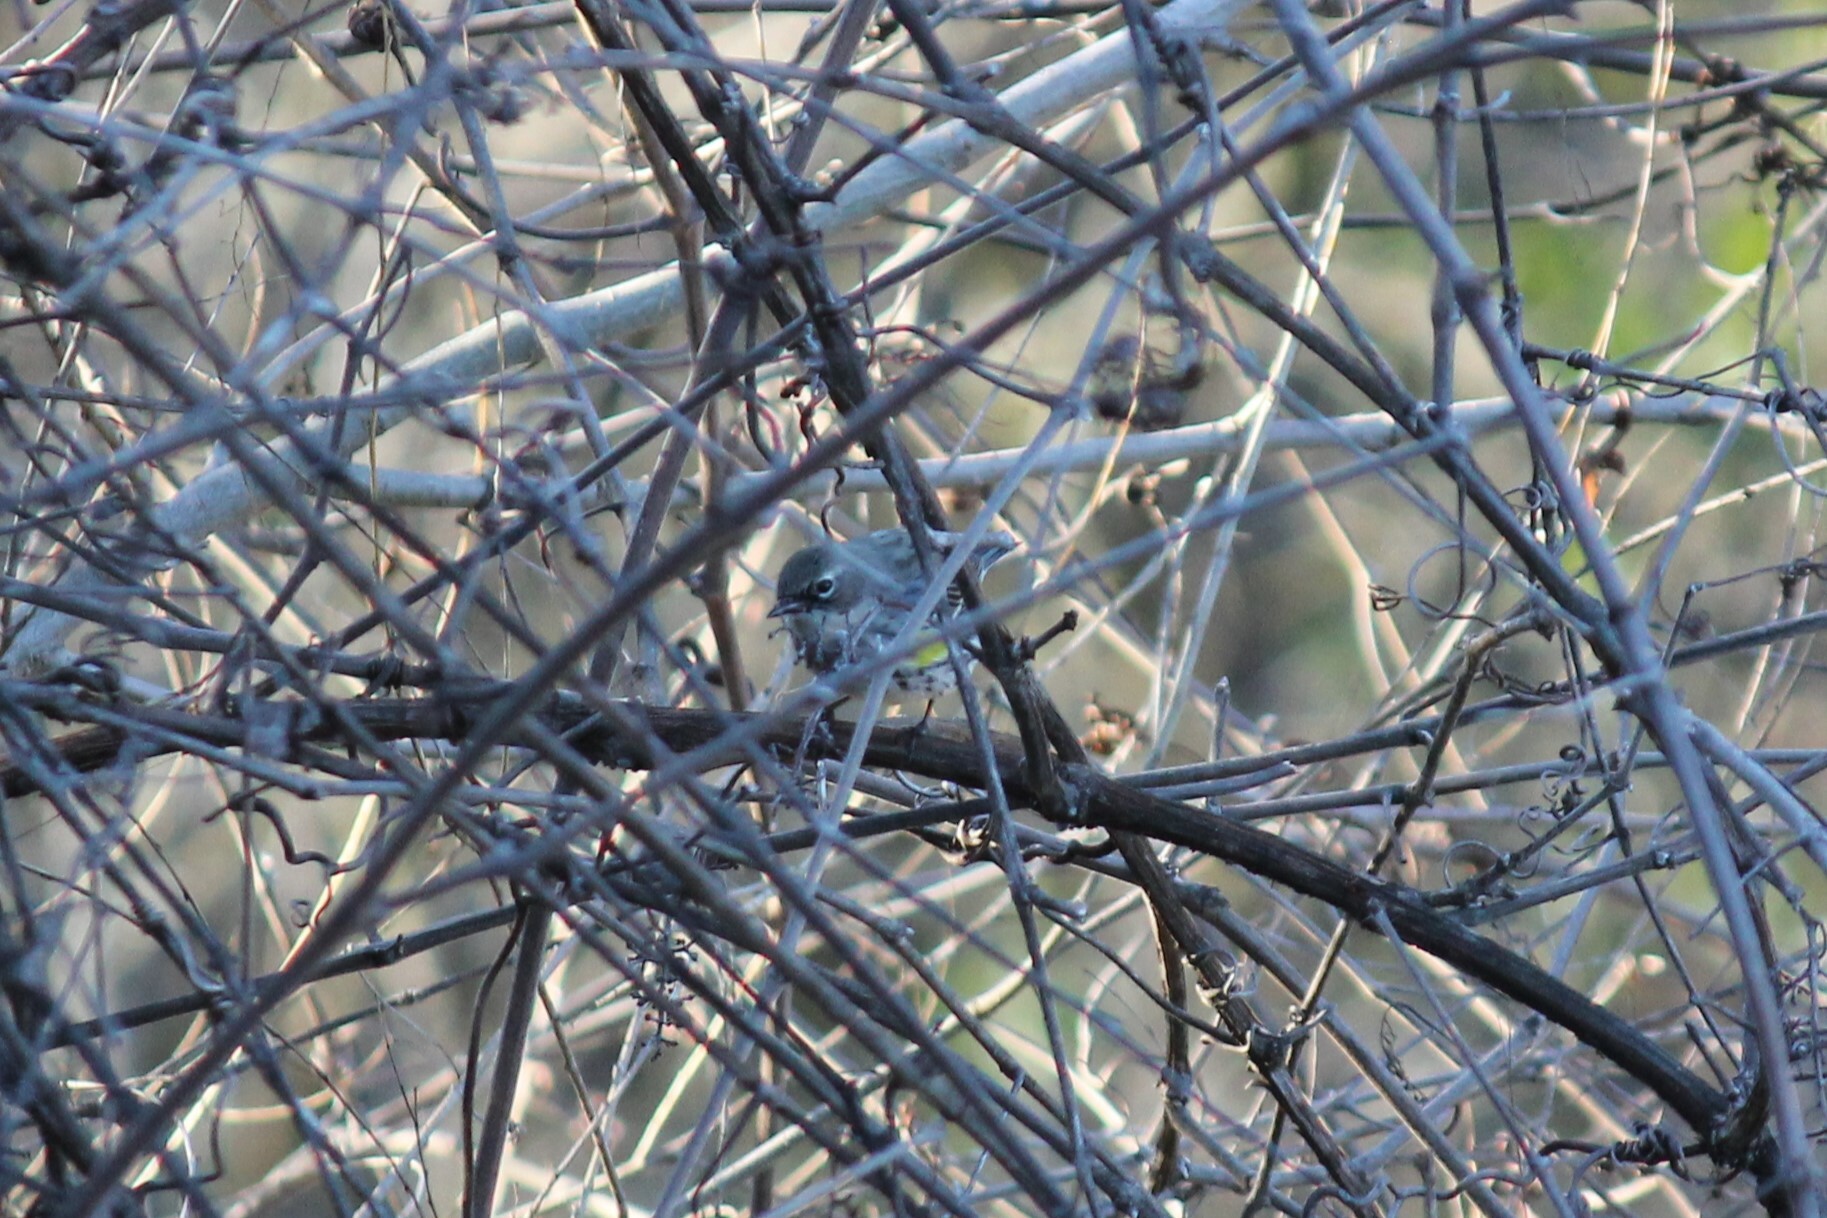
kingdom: Animalia
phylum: Chordata
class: Aves
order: Passeriformes
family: Parulidae
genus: Setophaga
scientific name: Setophaga coronata
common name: Myrtle warbler
